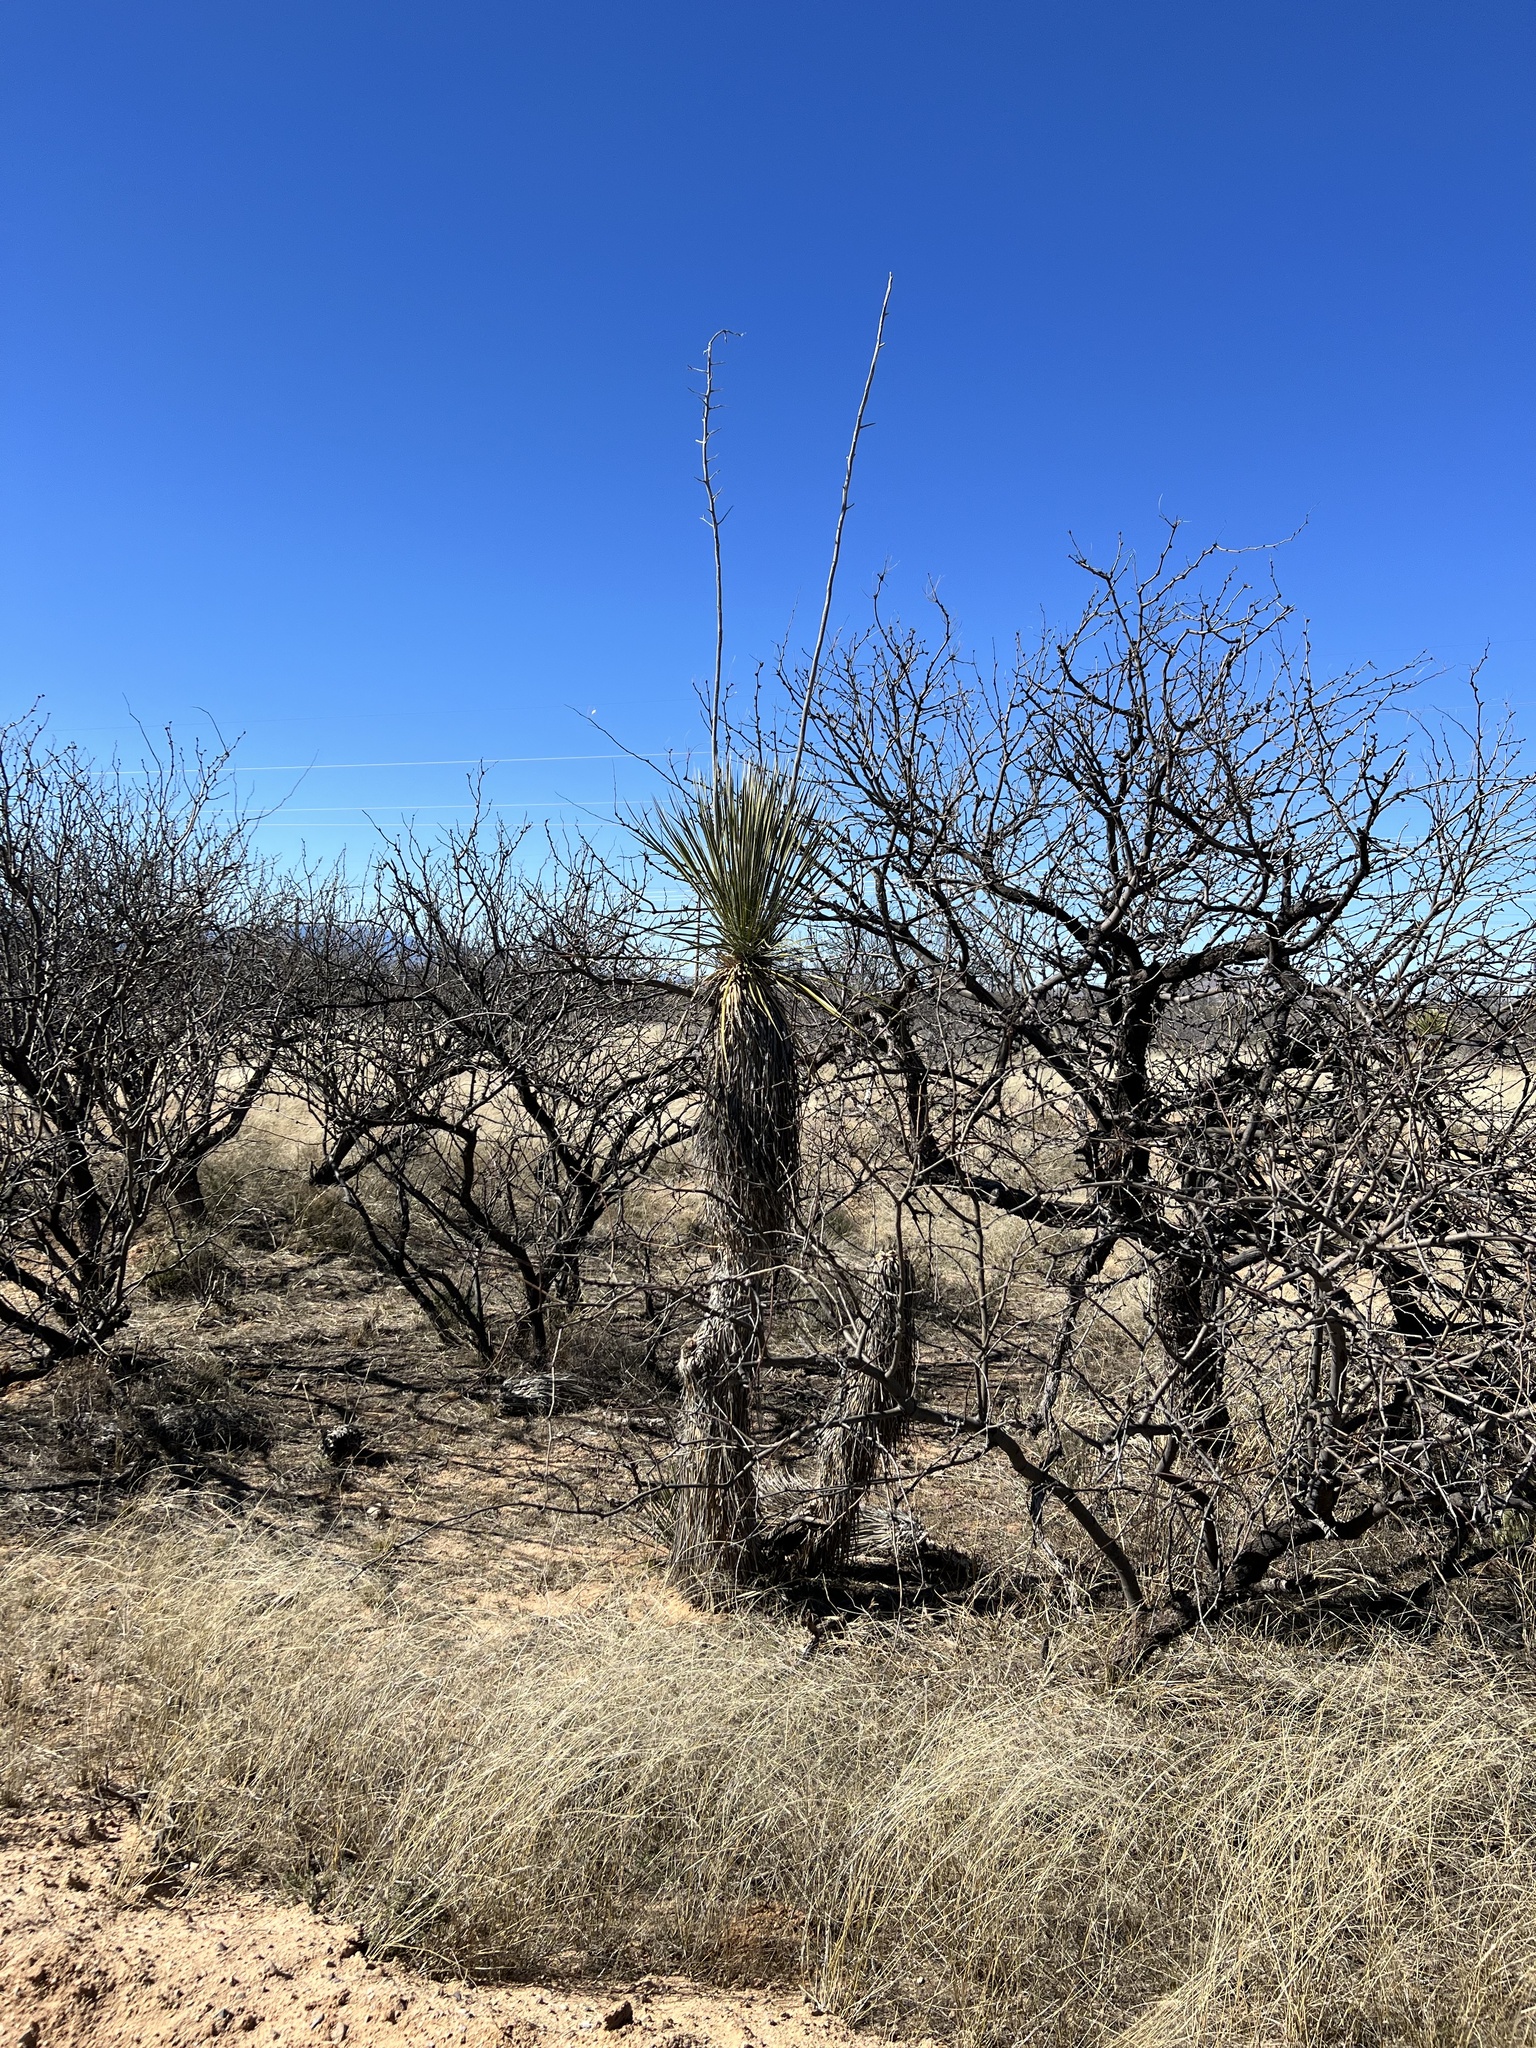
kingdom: Plantae
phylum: Tracheophyta
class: Liliopsida
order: Asparagales
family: Asparagaceae
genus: Yucca
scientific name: Yucca elata
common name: Palmella
